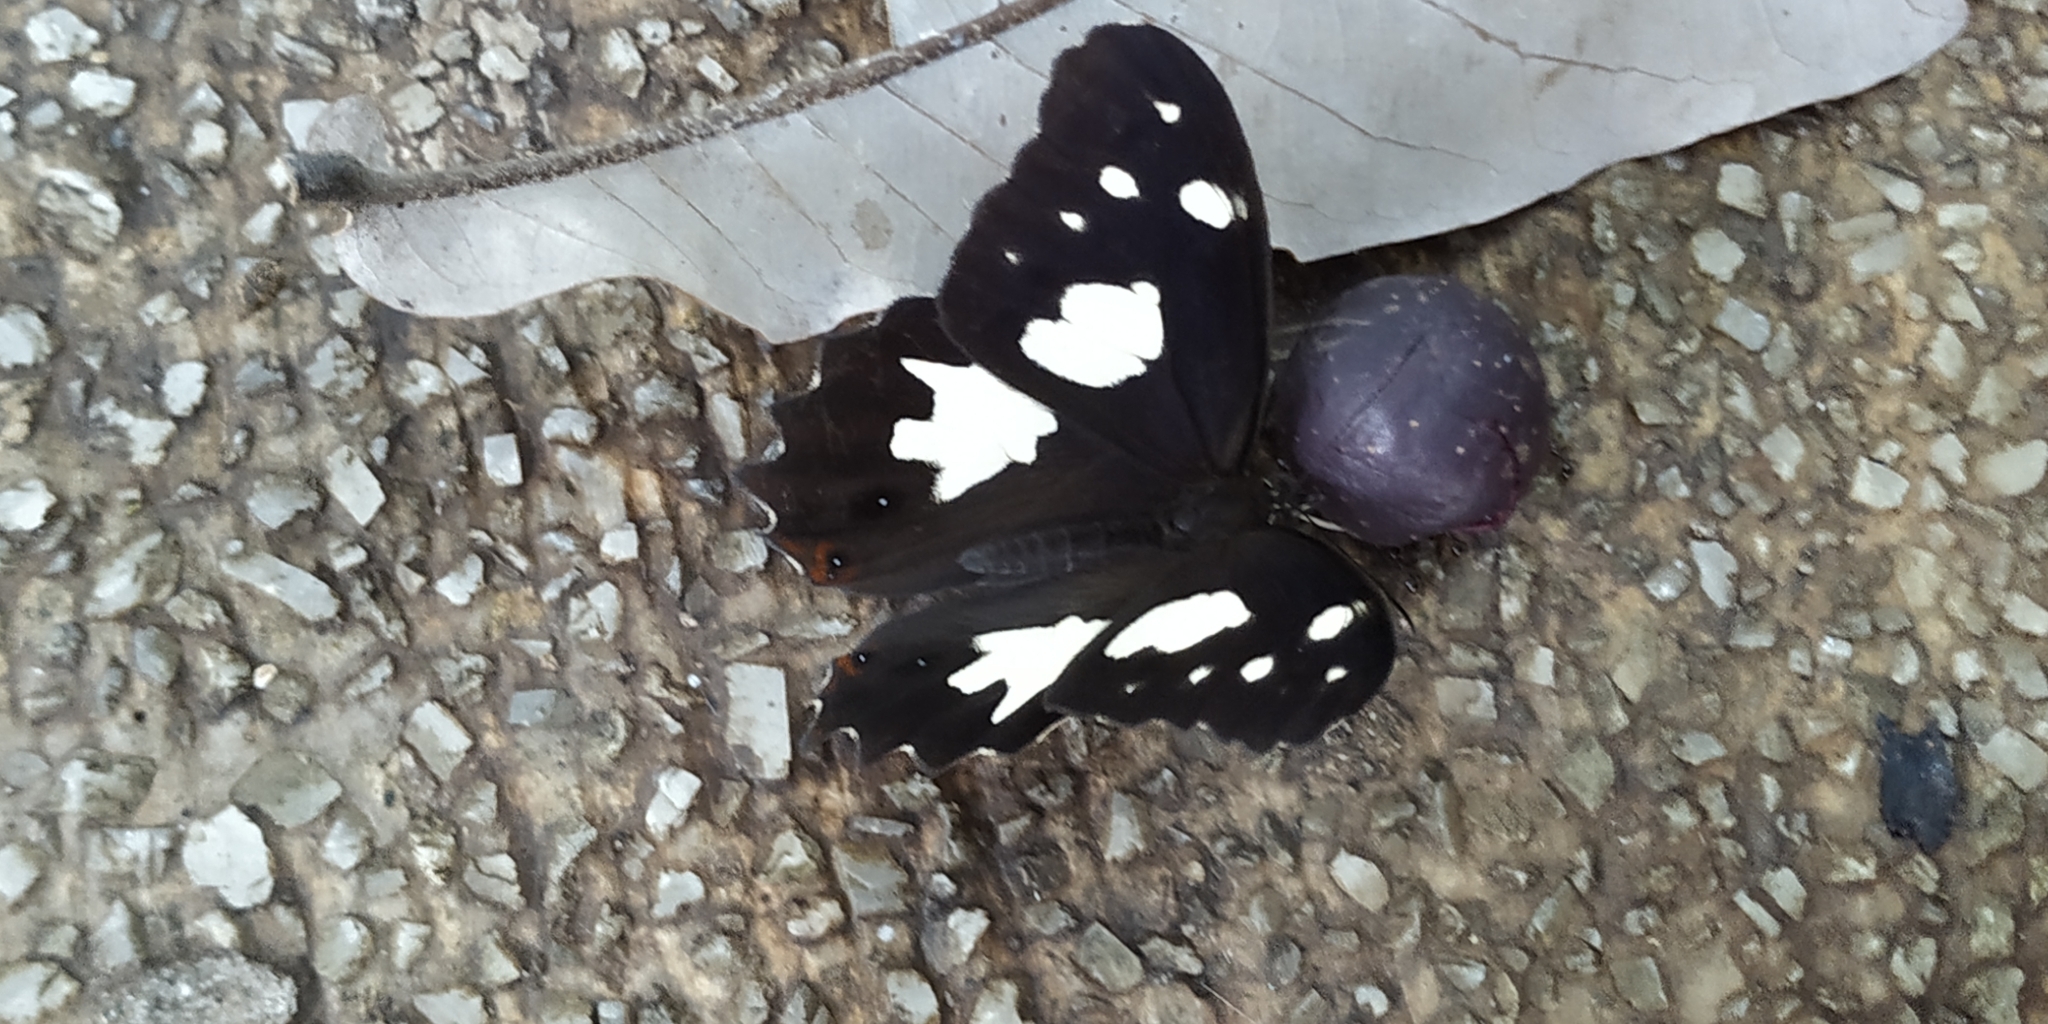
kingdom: Animalia
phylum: Arthropoda
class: Insecta
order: Lepidoptera
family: Nymphalidae
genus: Oxeoschistus
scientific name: Oxeoschistus tauropolis
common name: Starred oxeo
